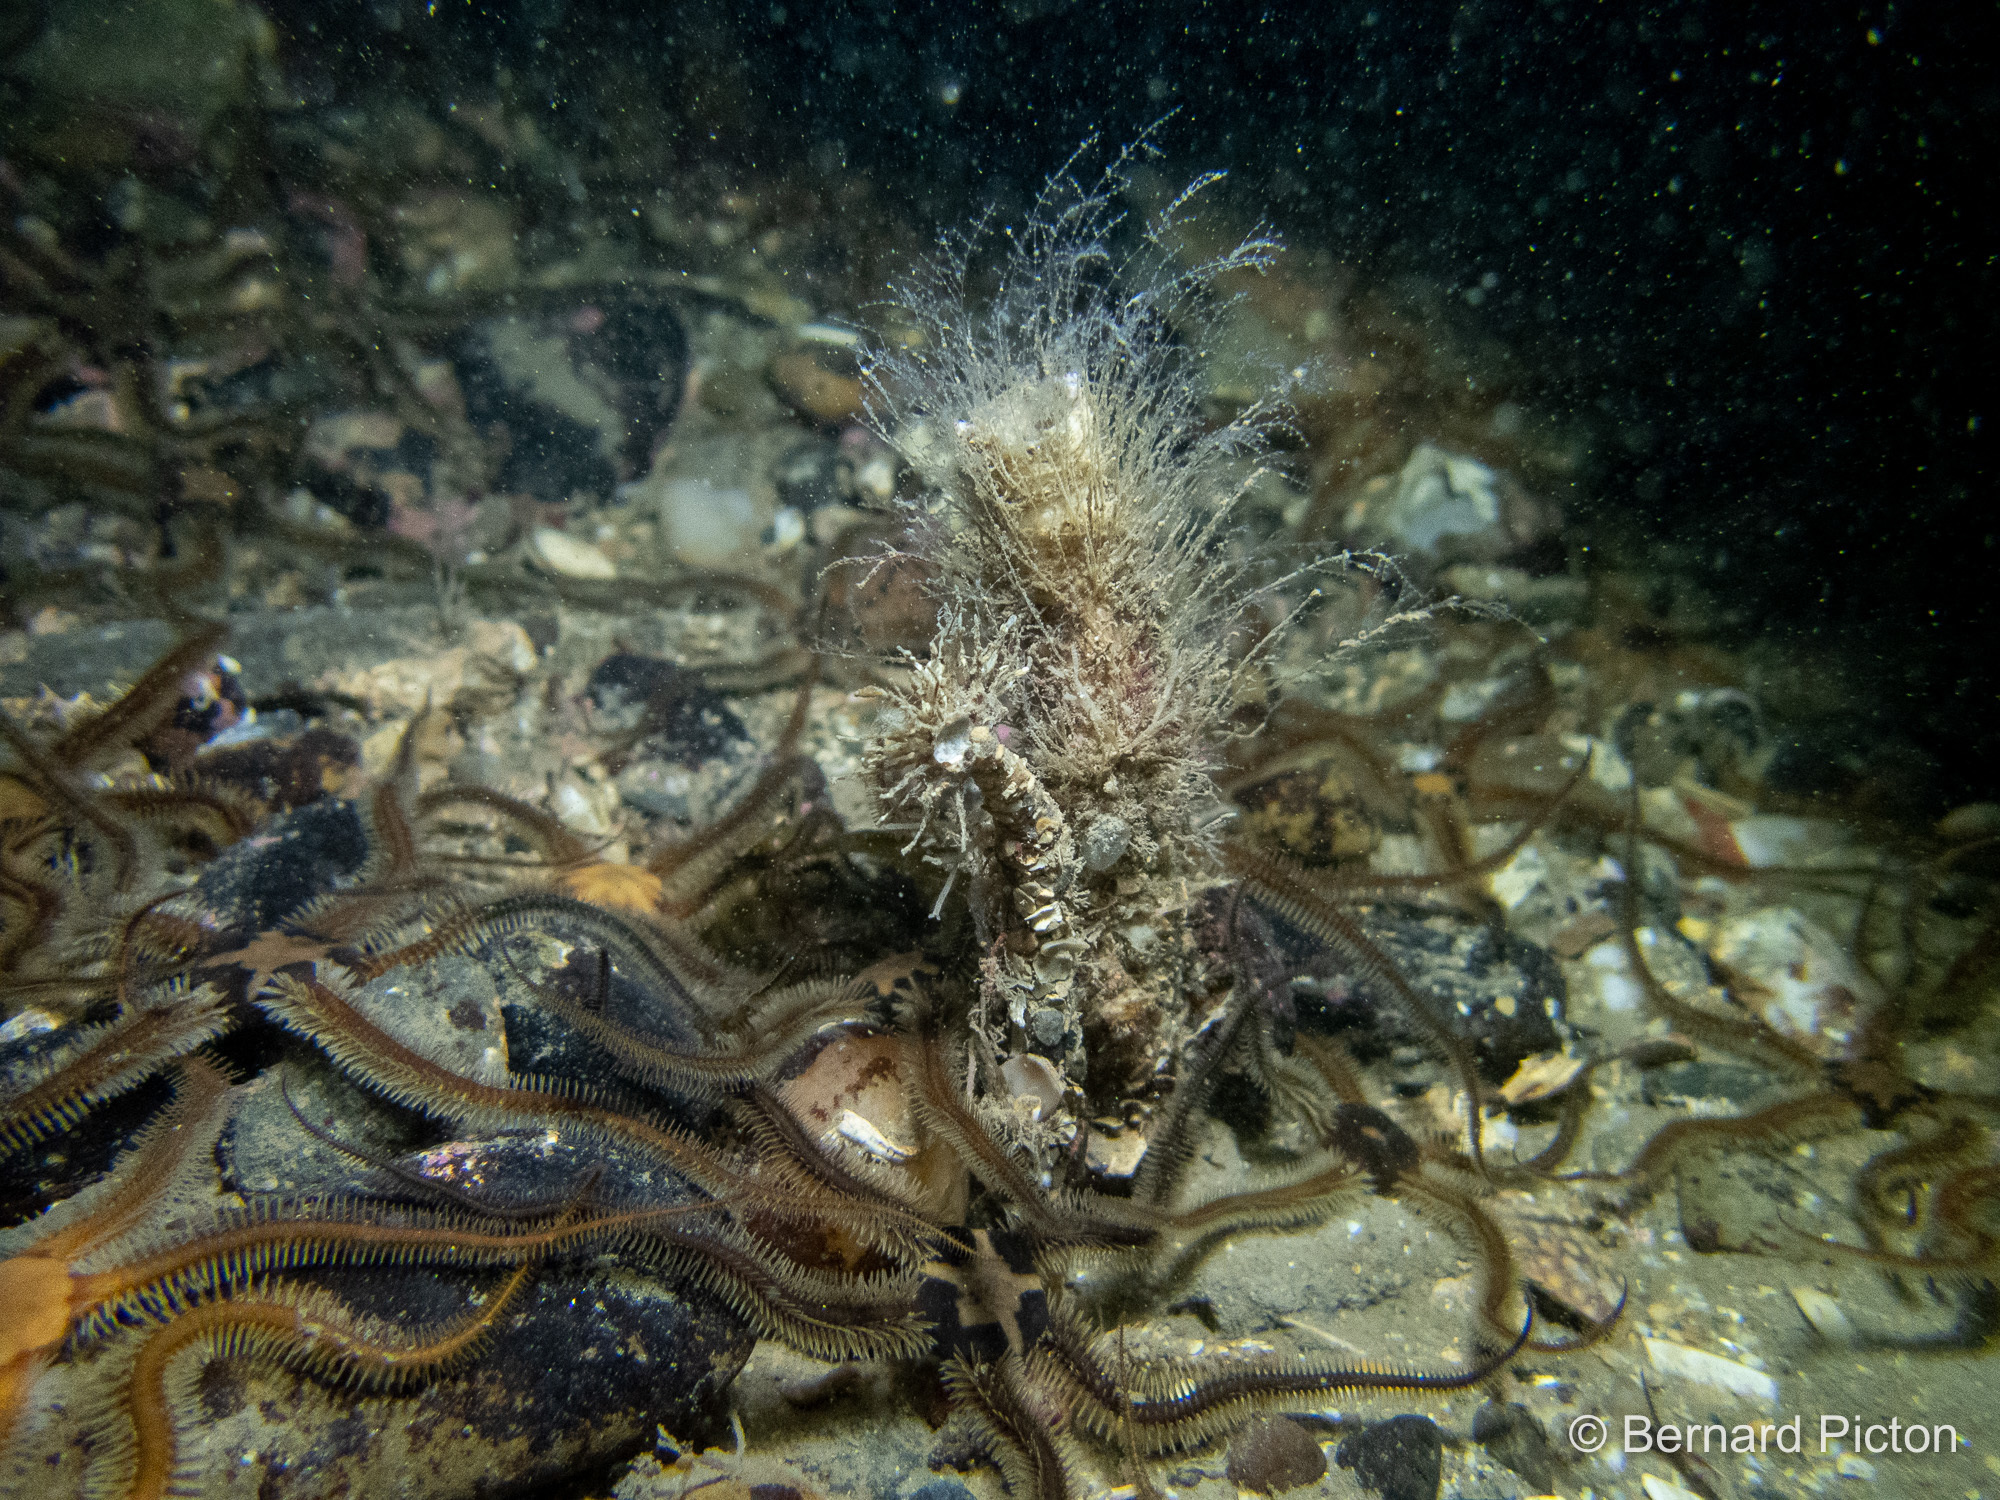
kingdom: Animalia
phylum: Annelida
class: Polychaeta
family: Chaetopteridae
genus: Chaetopterus
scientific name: Chaetopterus variopedatus
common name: Parchment worm
